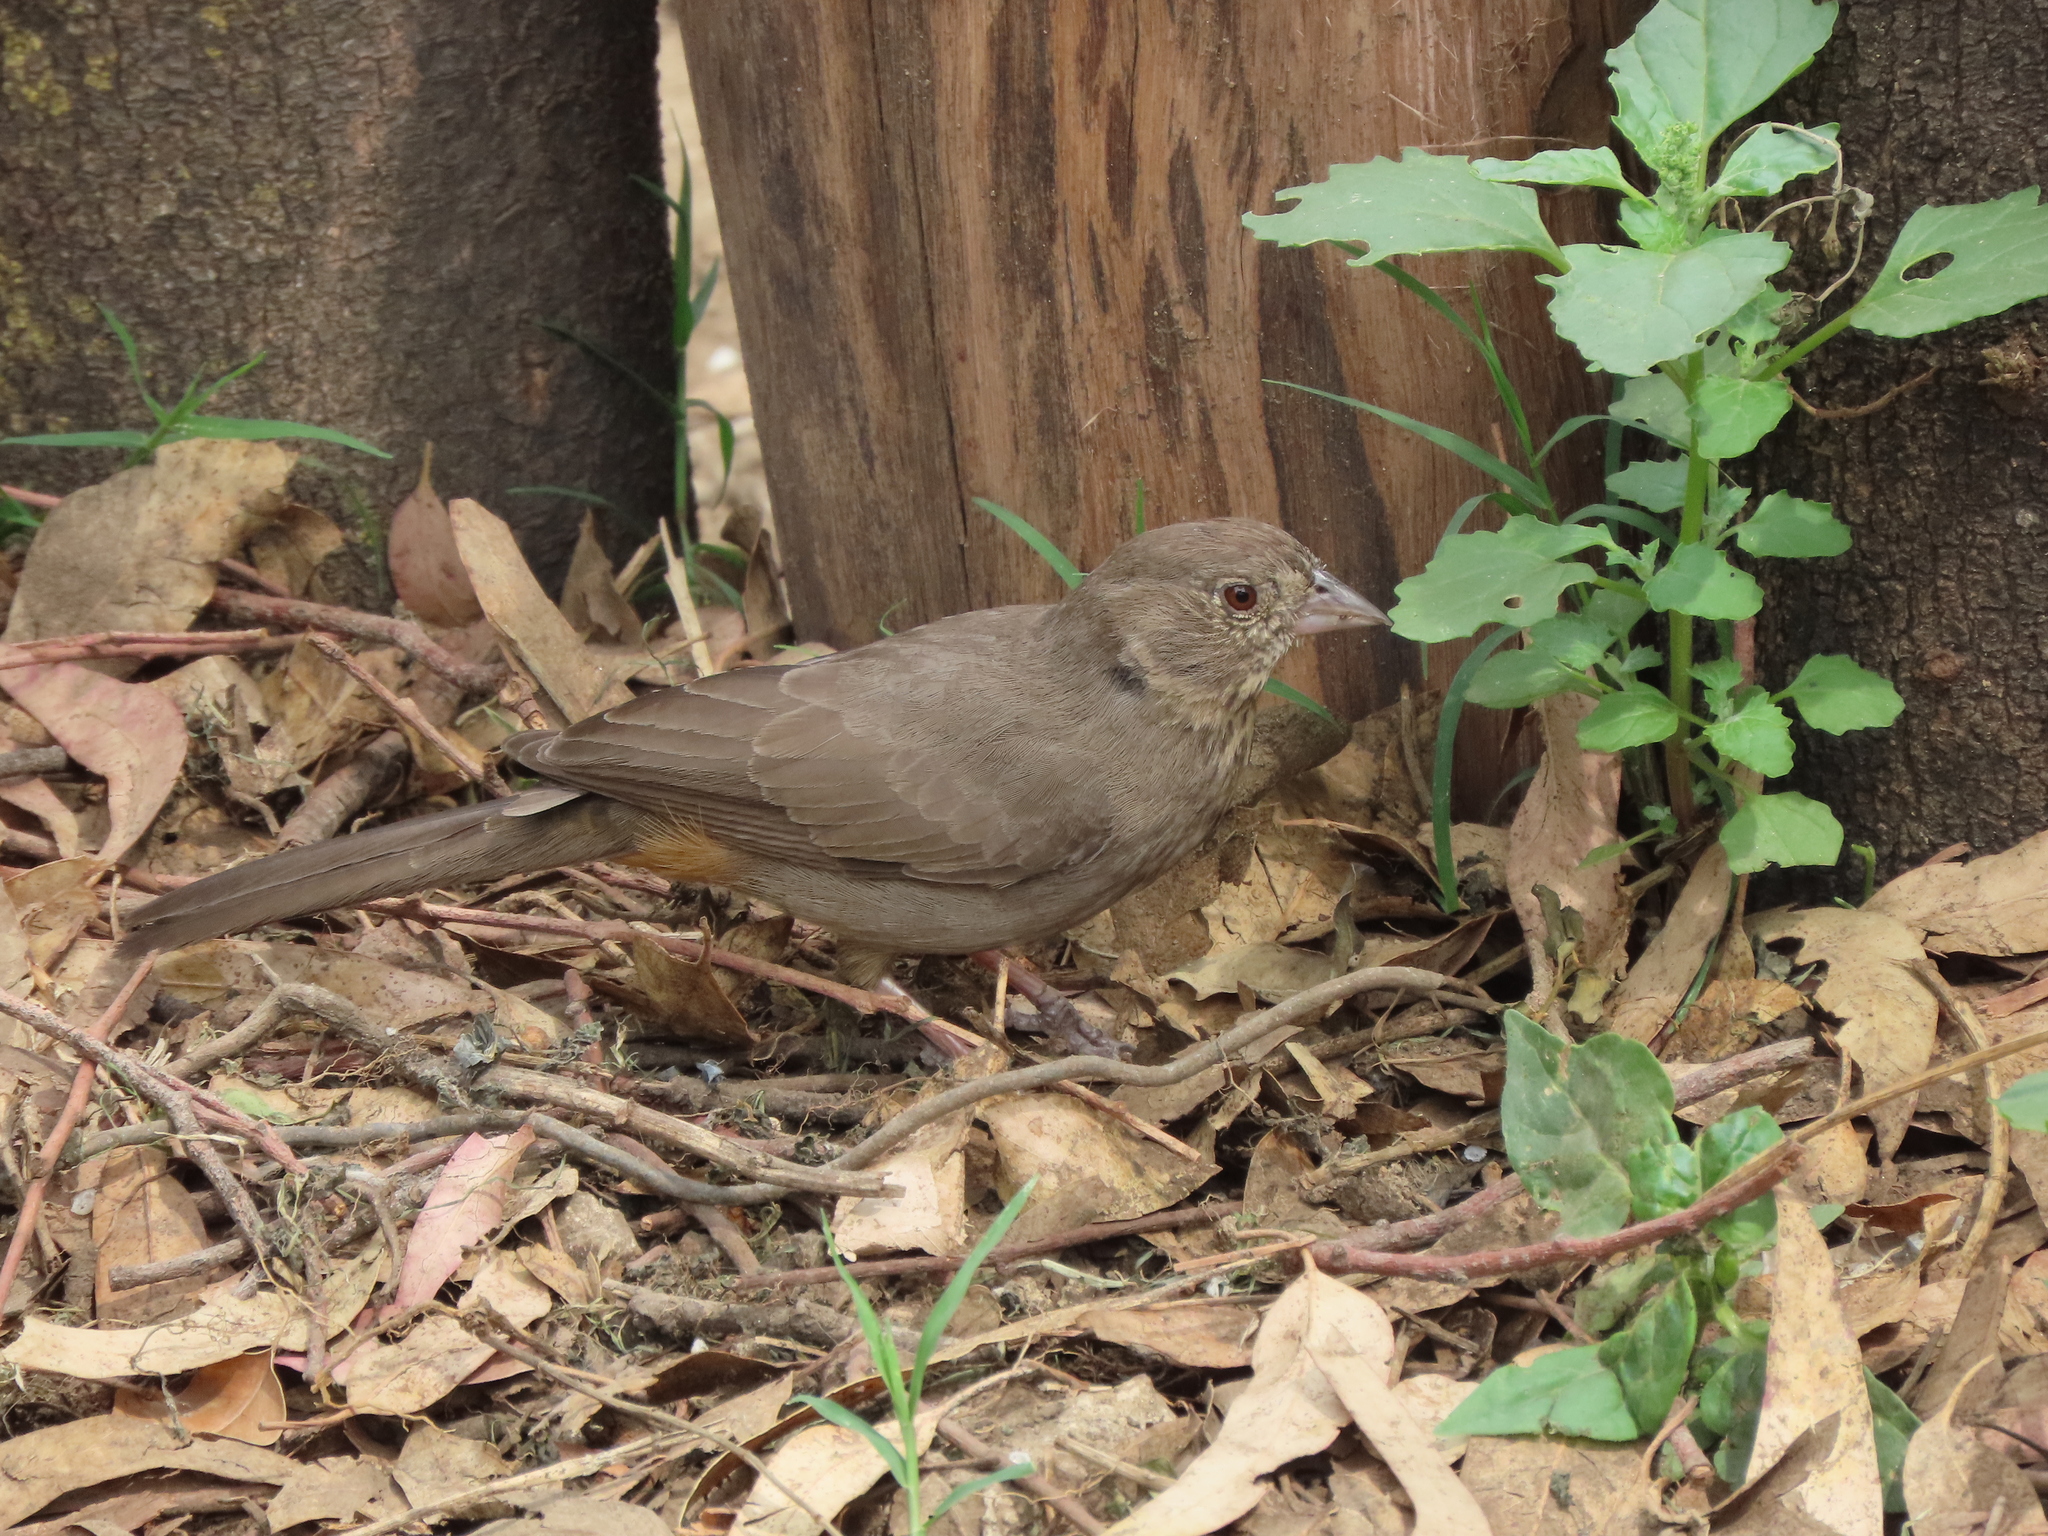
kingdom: Animalia
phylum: Chordata
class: Aves
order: Passeriformes
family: Passerellidae
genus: Melozone
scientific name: Melozone fusca
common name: Canyon towhee
